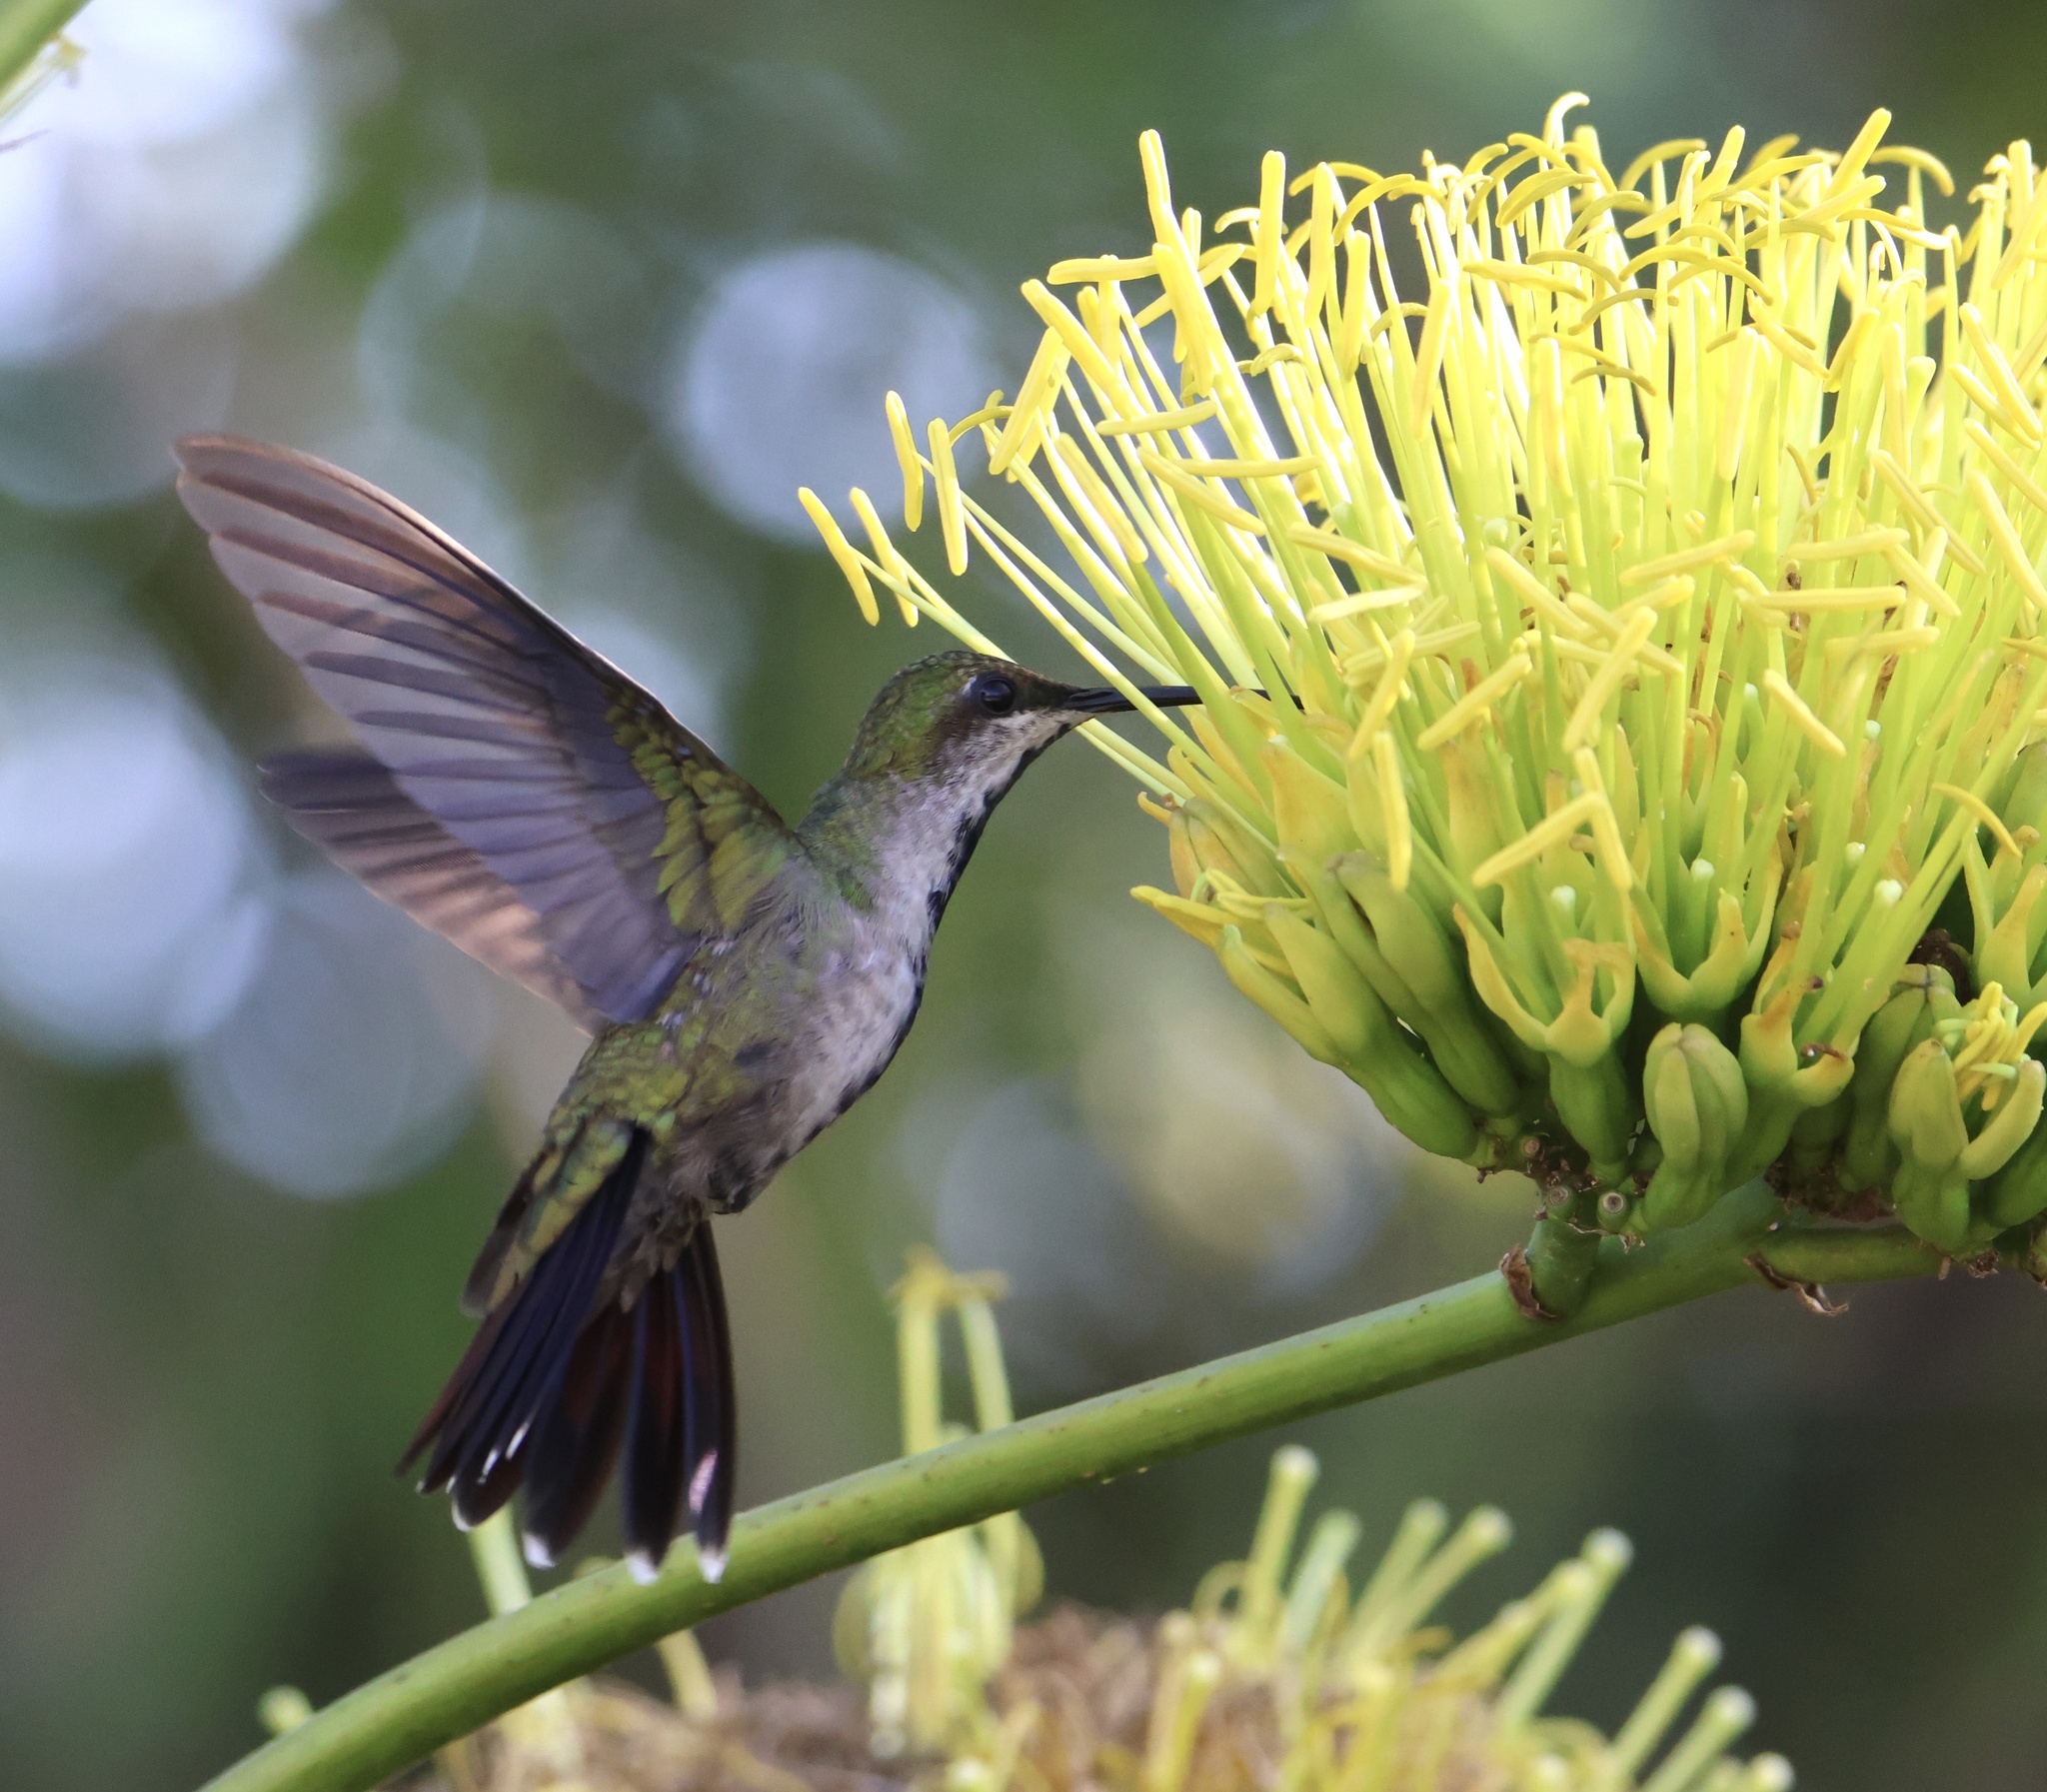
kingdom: Animalia
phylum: Chordata
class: Aves
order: Apodiformes
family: Trochilidae
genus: Anthracothorax
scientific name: Anthracothorax dominicus
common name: Antillean mango
